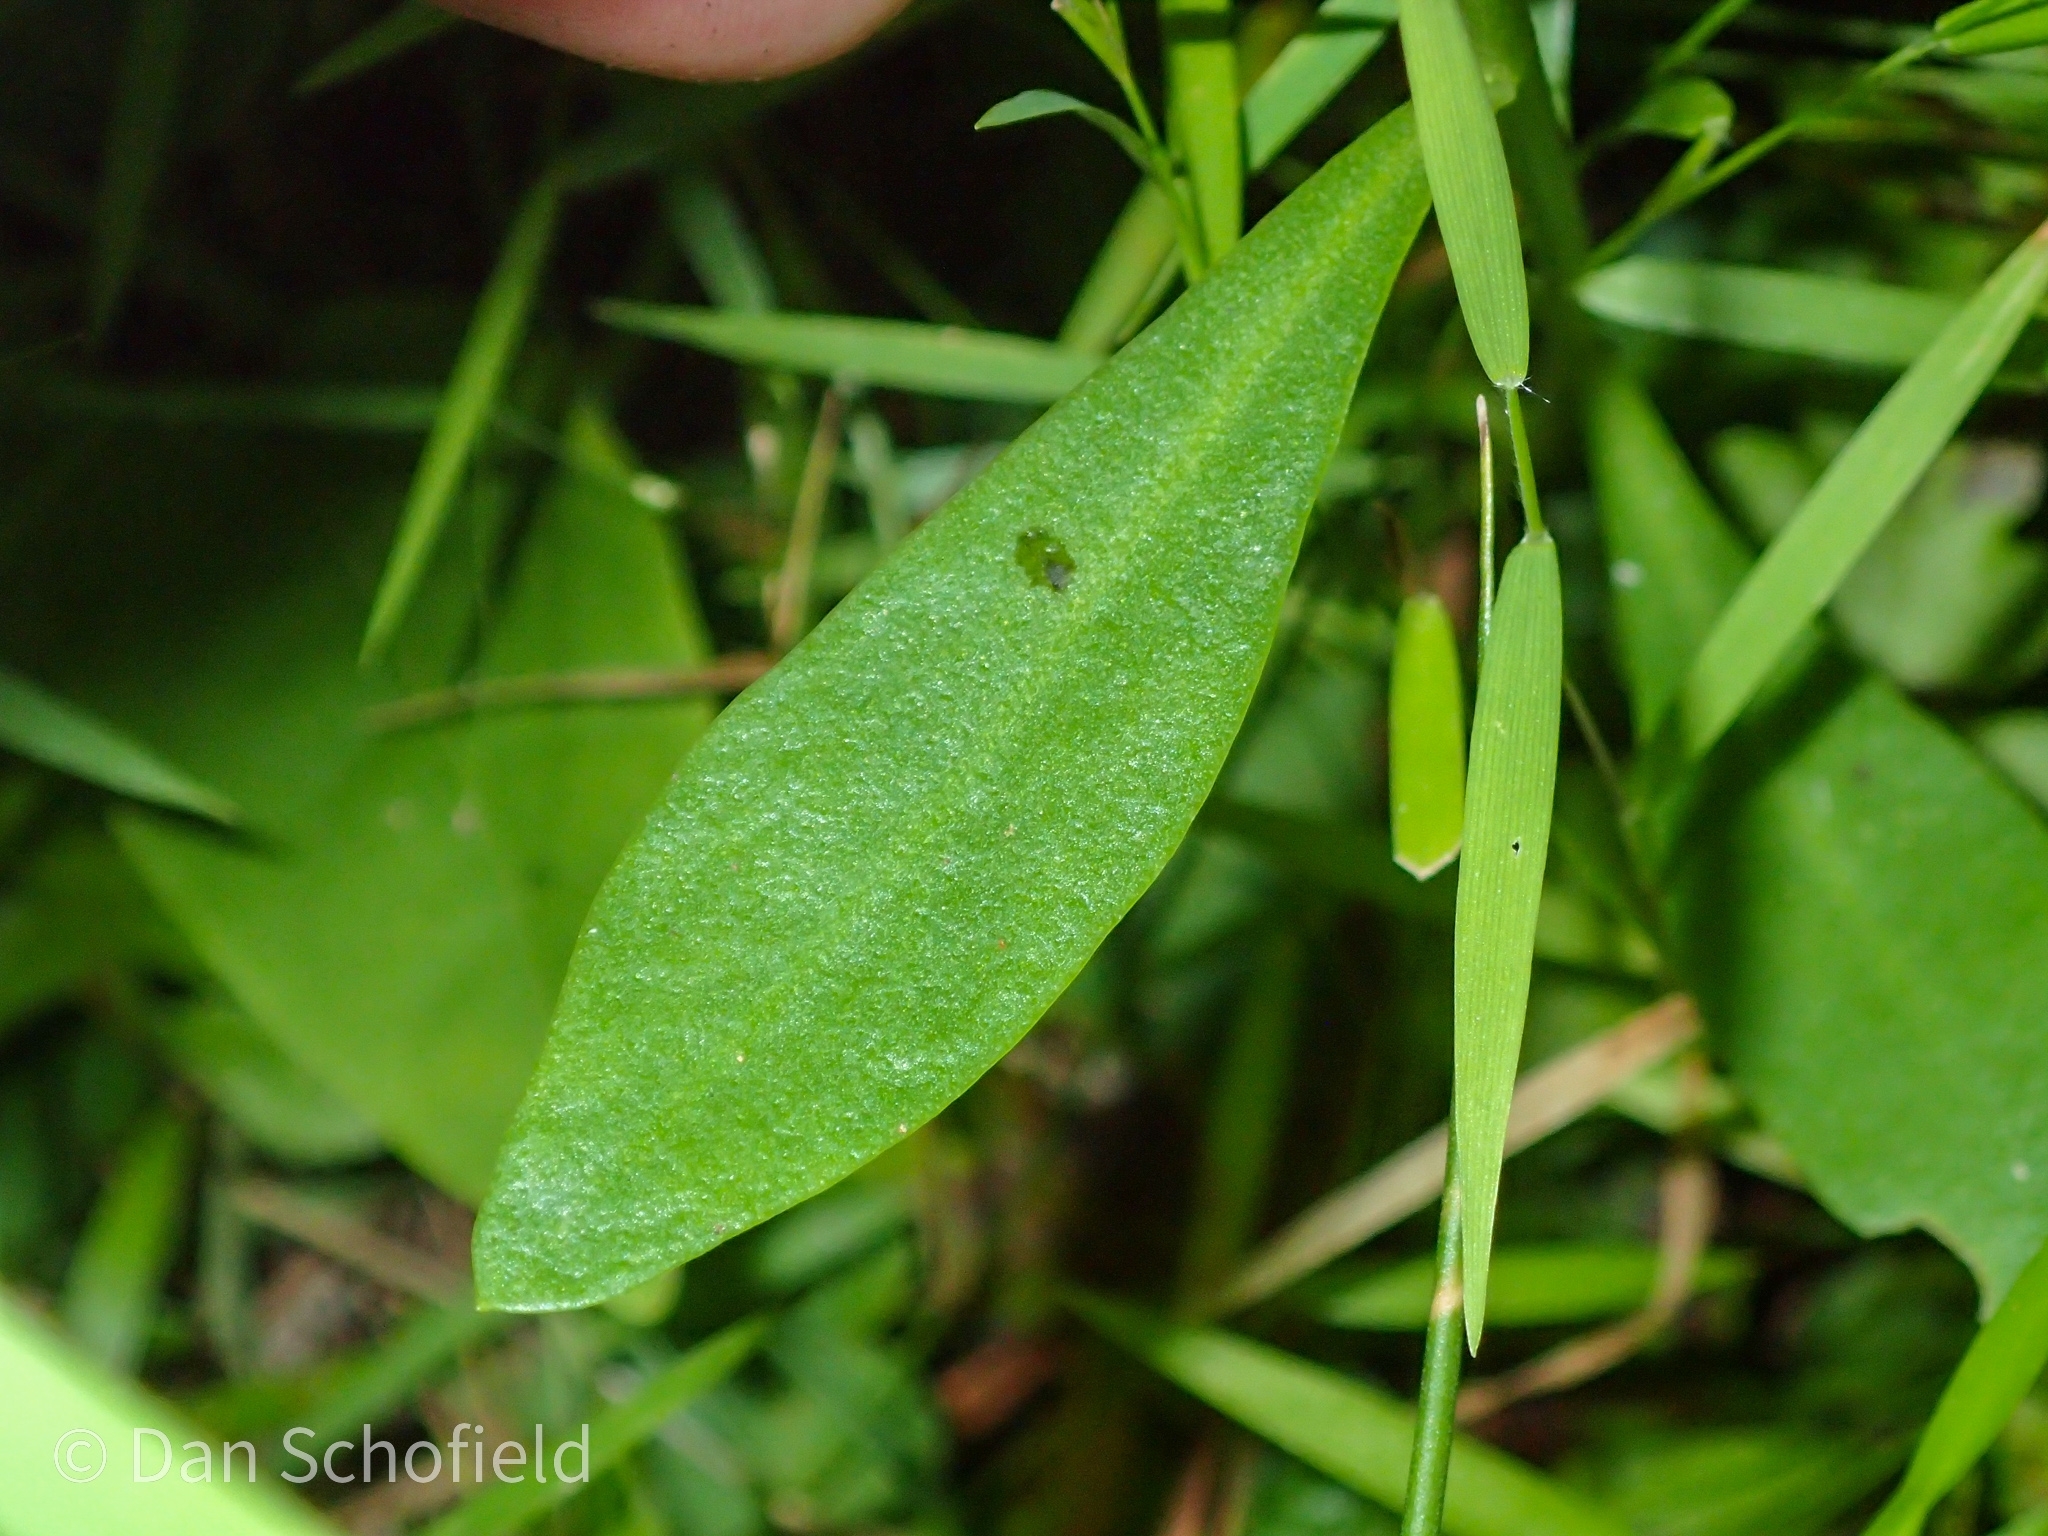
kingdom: Plantae
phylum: Tracheophyta
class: Magnoliopsida
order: Fabales
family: Polygalaceae
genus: Polygala
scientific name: Polygala lutea
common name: Orange milkwort
